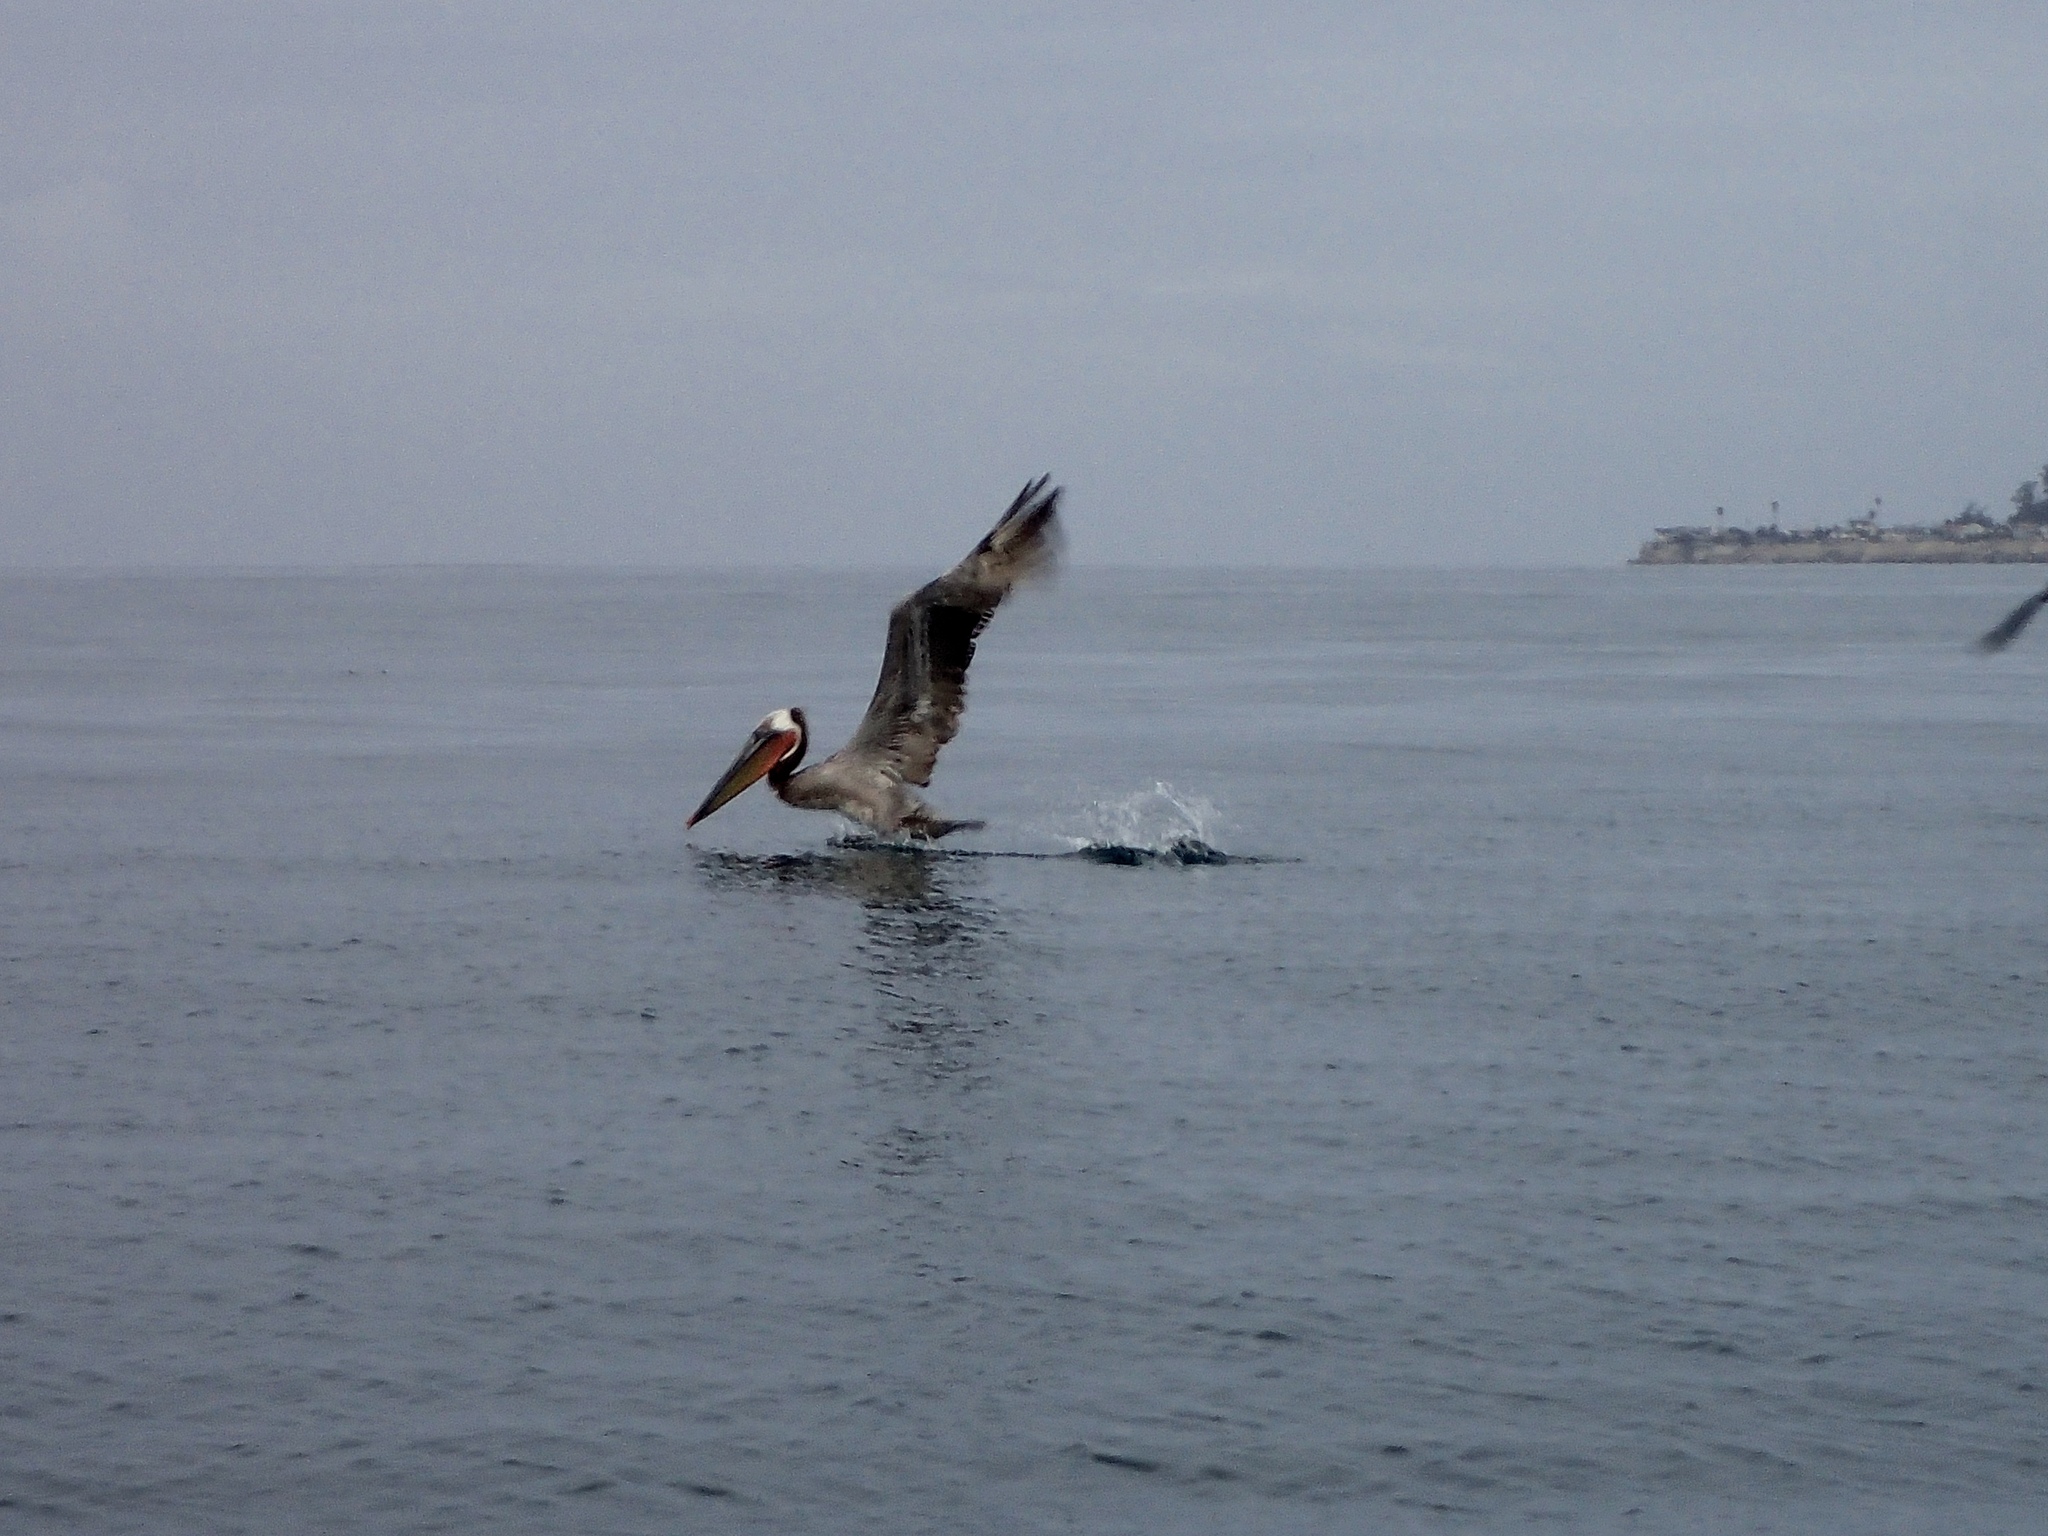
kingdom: Animalia
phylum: Chordata
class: Aves
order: Pelecaniformes
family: Pelecanidae
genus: Pelecanus
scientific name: Pelecanus occidentalis
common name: Brown pelican
